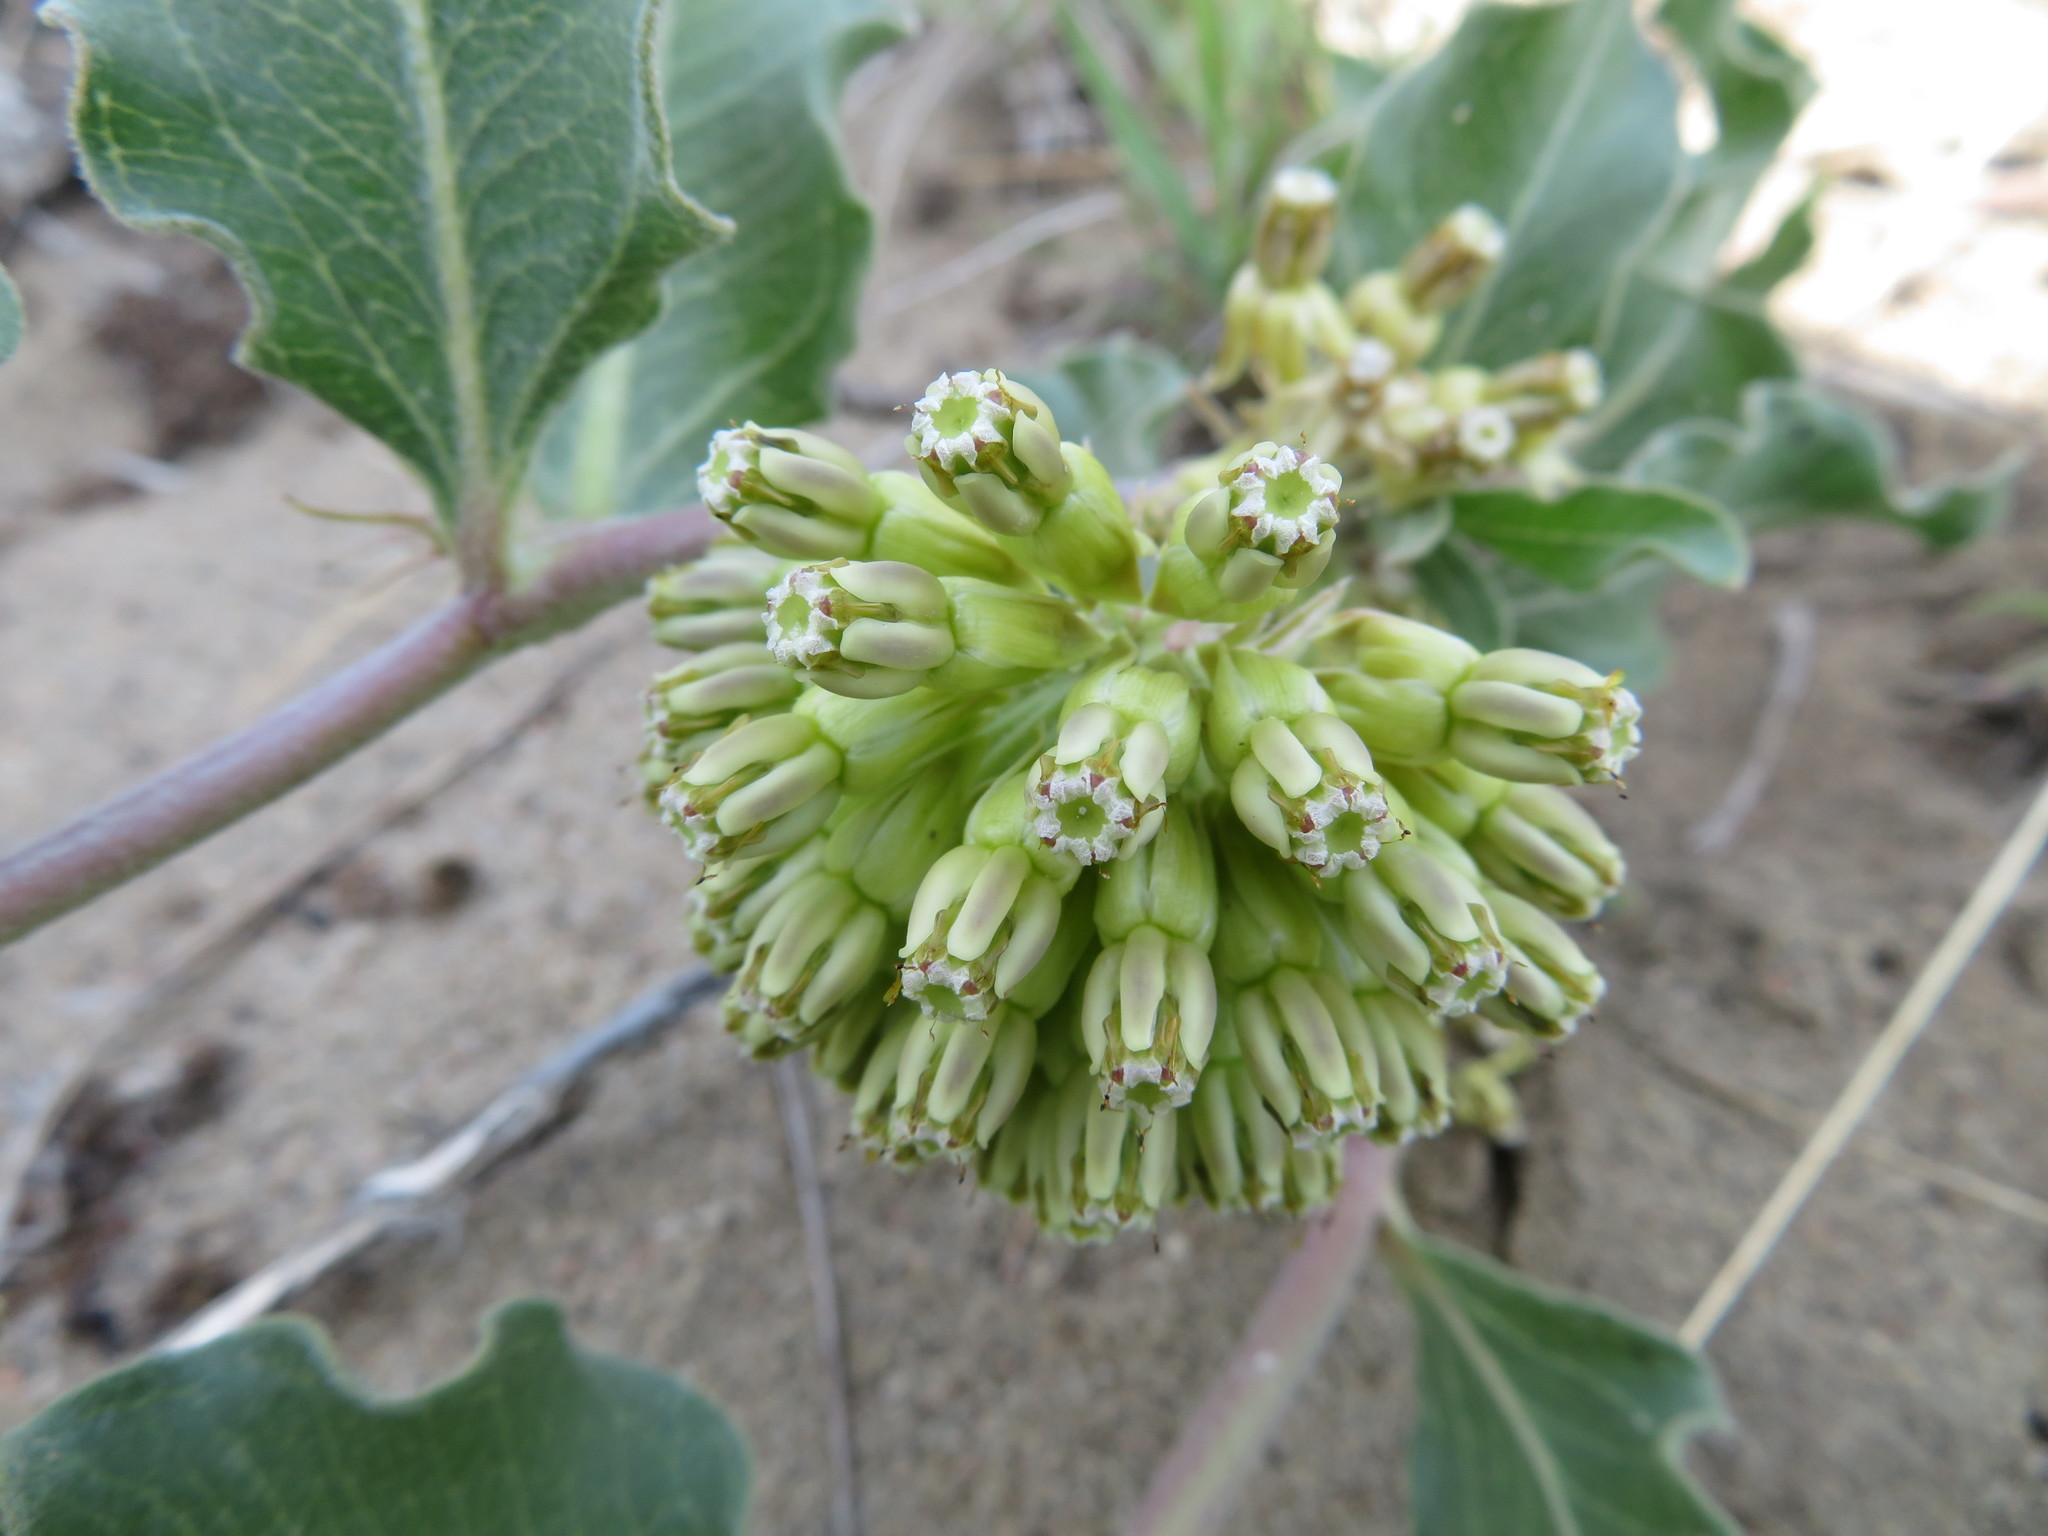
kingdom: Plantae
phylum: Tracheophyta
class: Magnoliopsida
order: Gentianales
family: Apocynaceae
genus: Asclepias
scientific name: Asclepias viridiflora
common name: Green comet milkweed
